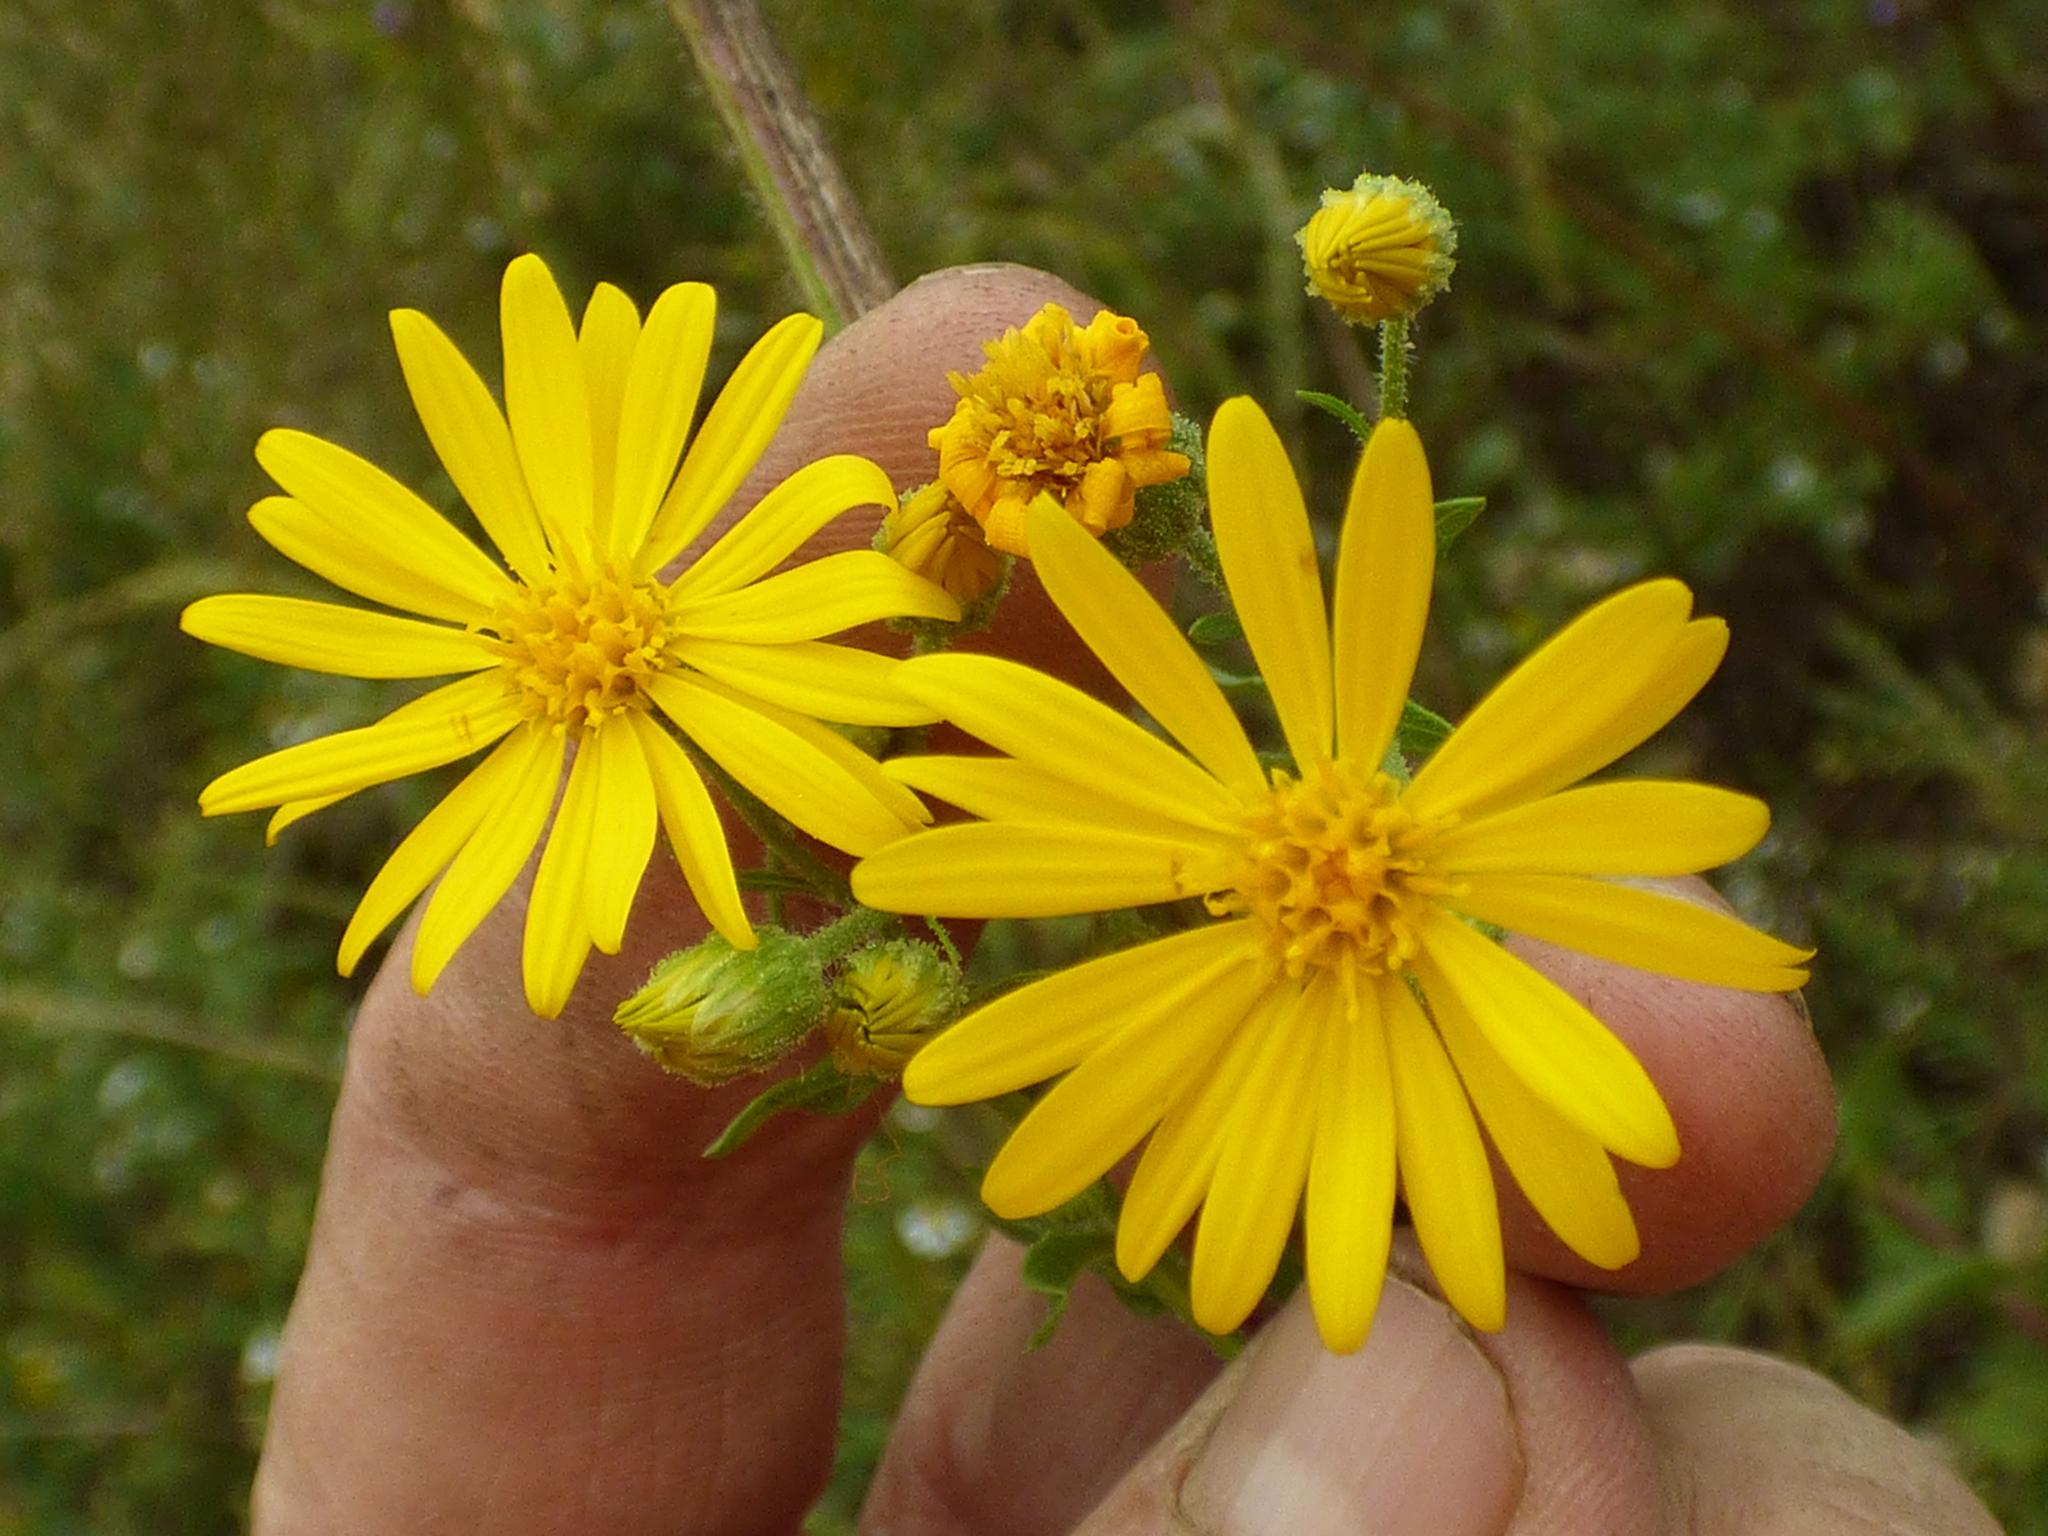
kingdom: Plantae
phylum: Tracheophyta
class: Magnoliopsida
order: Asterales
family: Asteraceae
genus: Chrysopsis
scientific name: Chrysopsis mariana
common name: Maryland golden-aster
